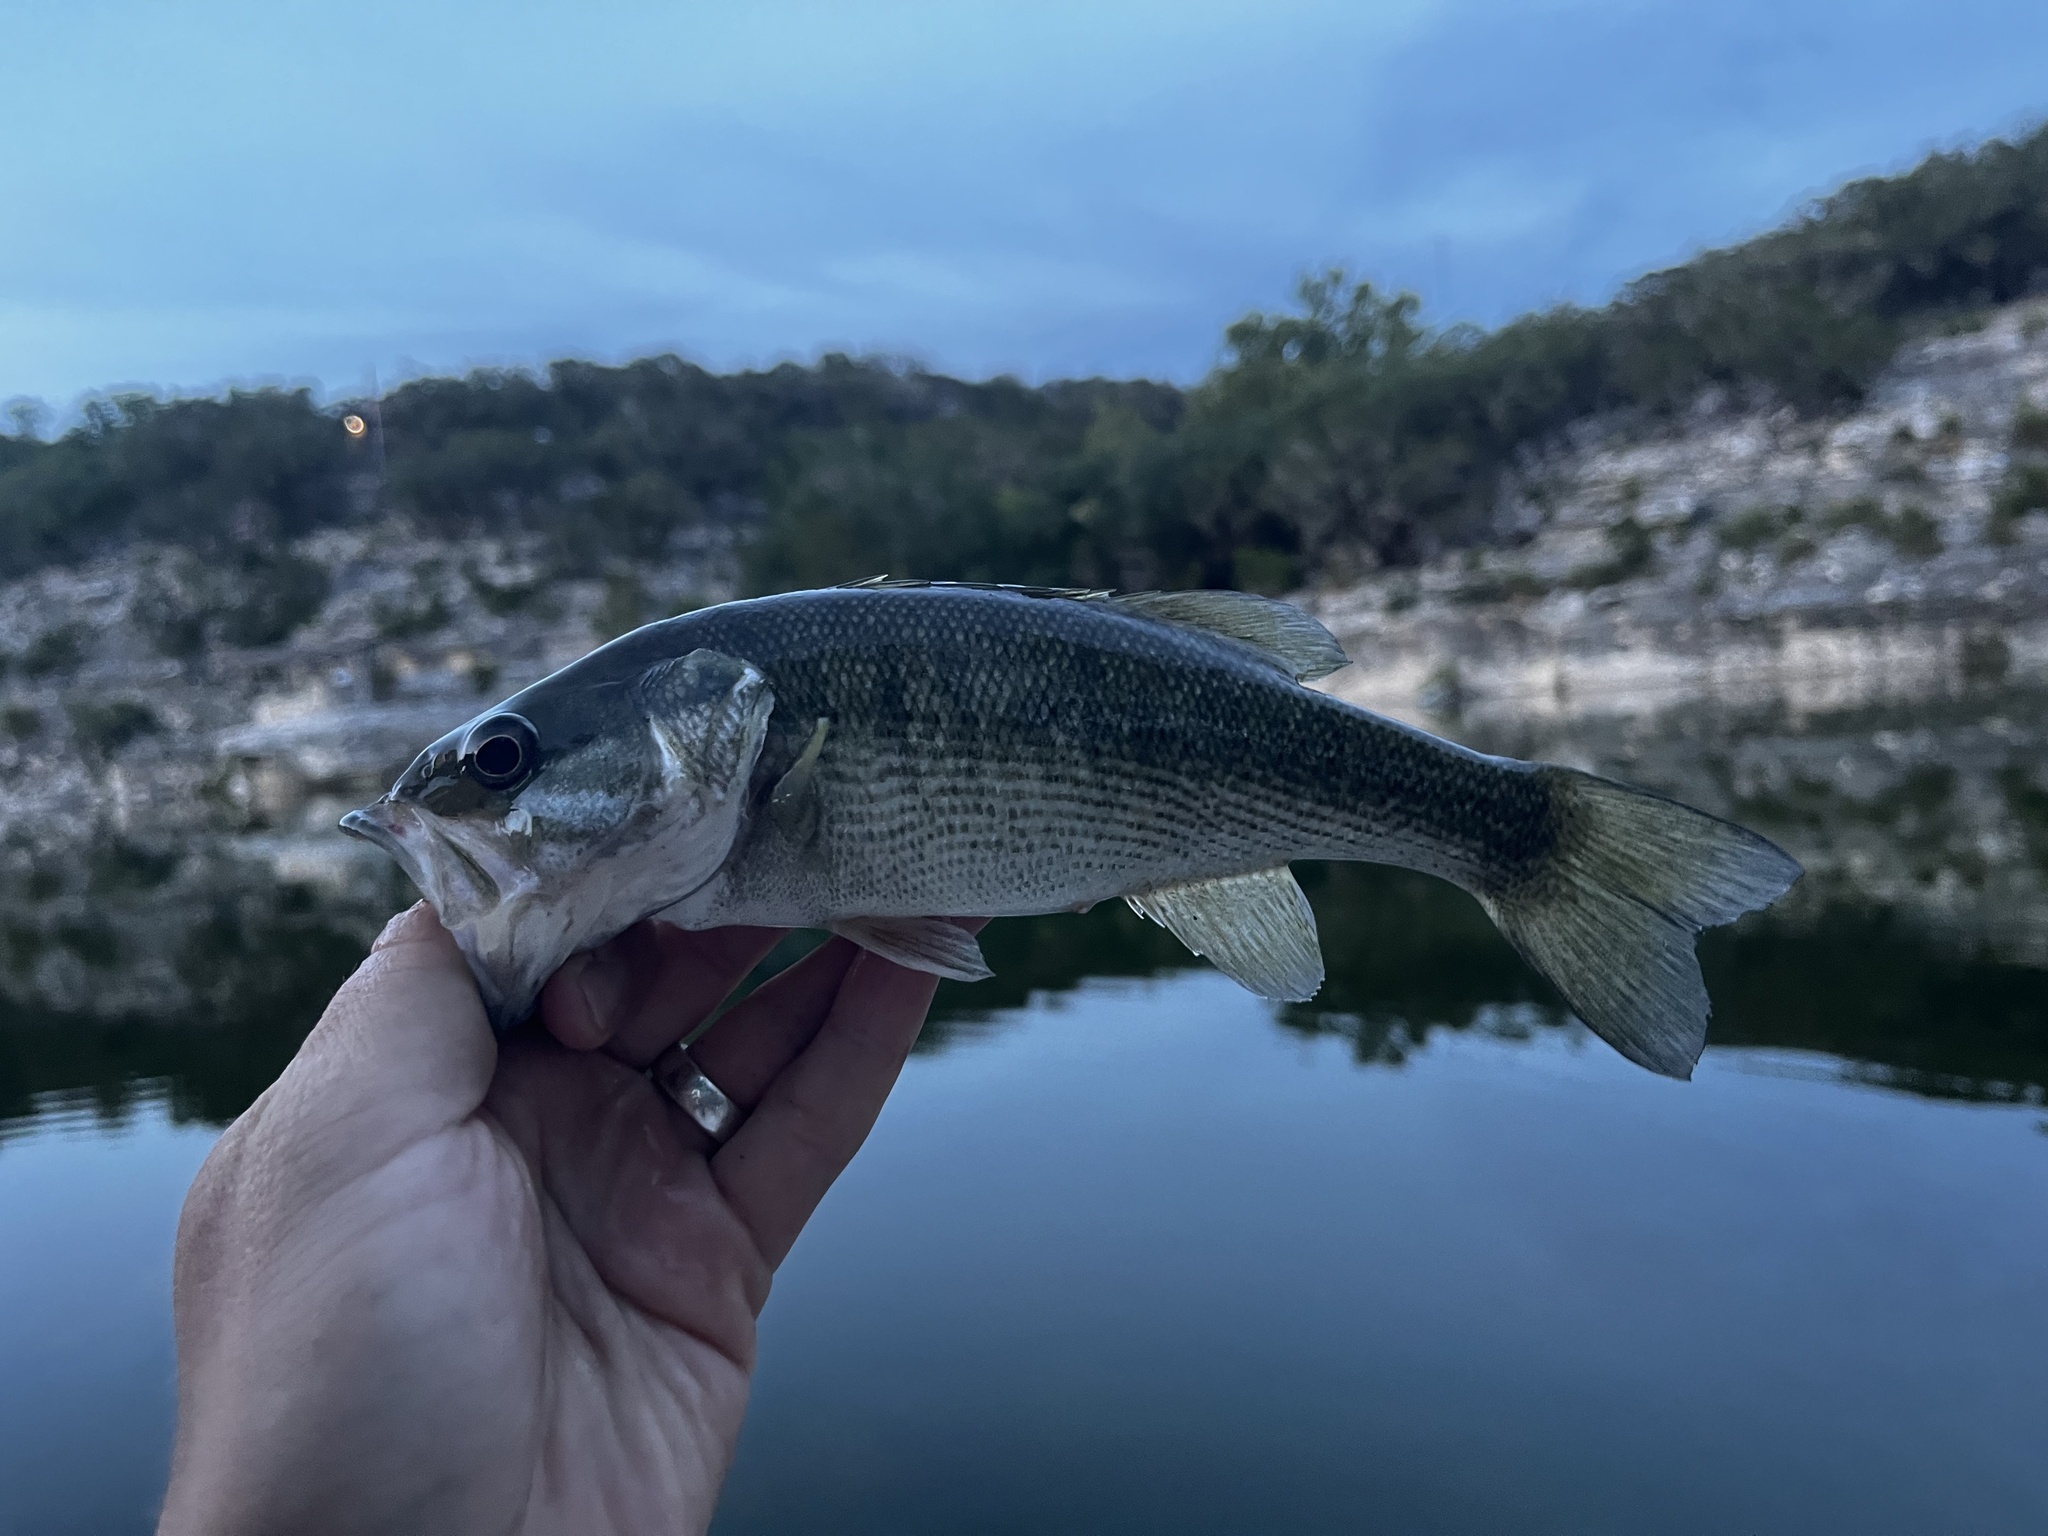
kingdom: Animalia
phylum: Chordata
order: Perciformes
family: Centrarchidae
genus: Micropterus
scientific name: Micropterus treculii
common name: Guadalupe bass
